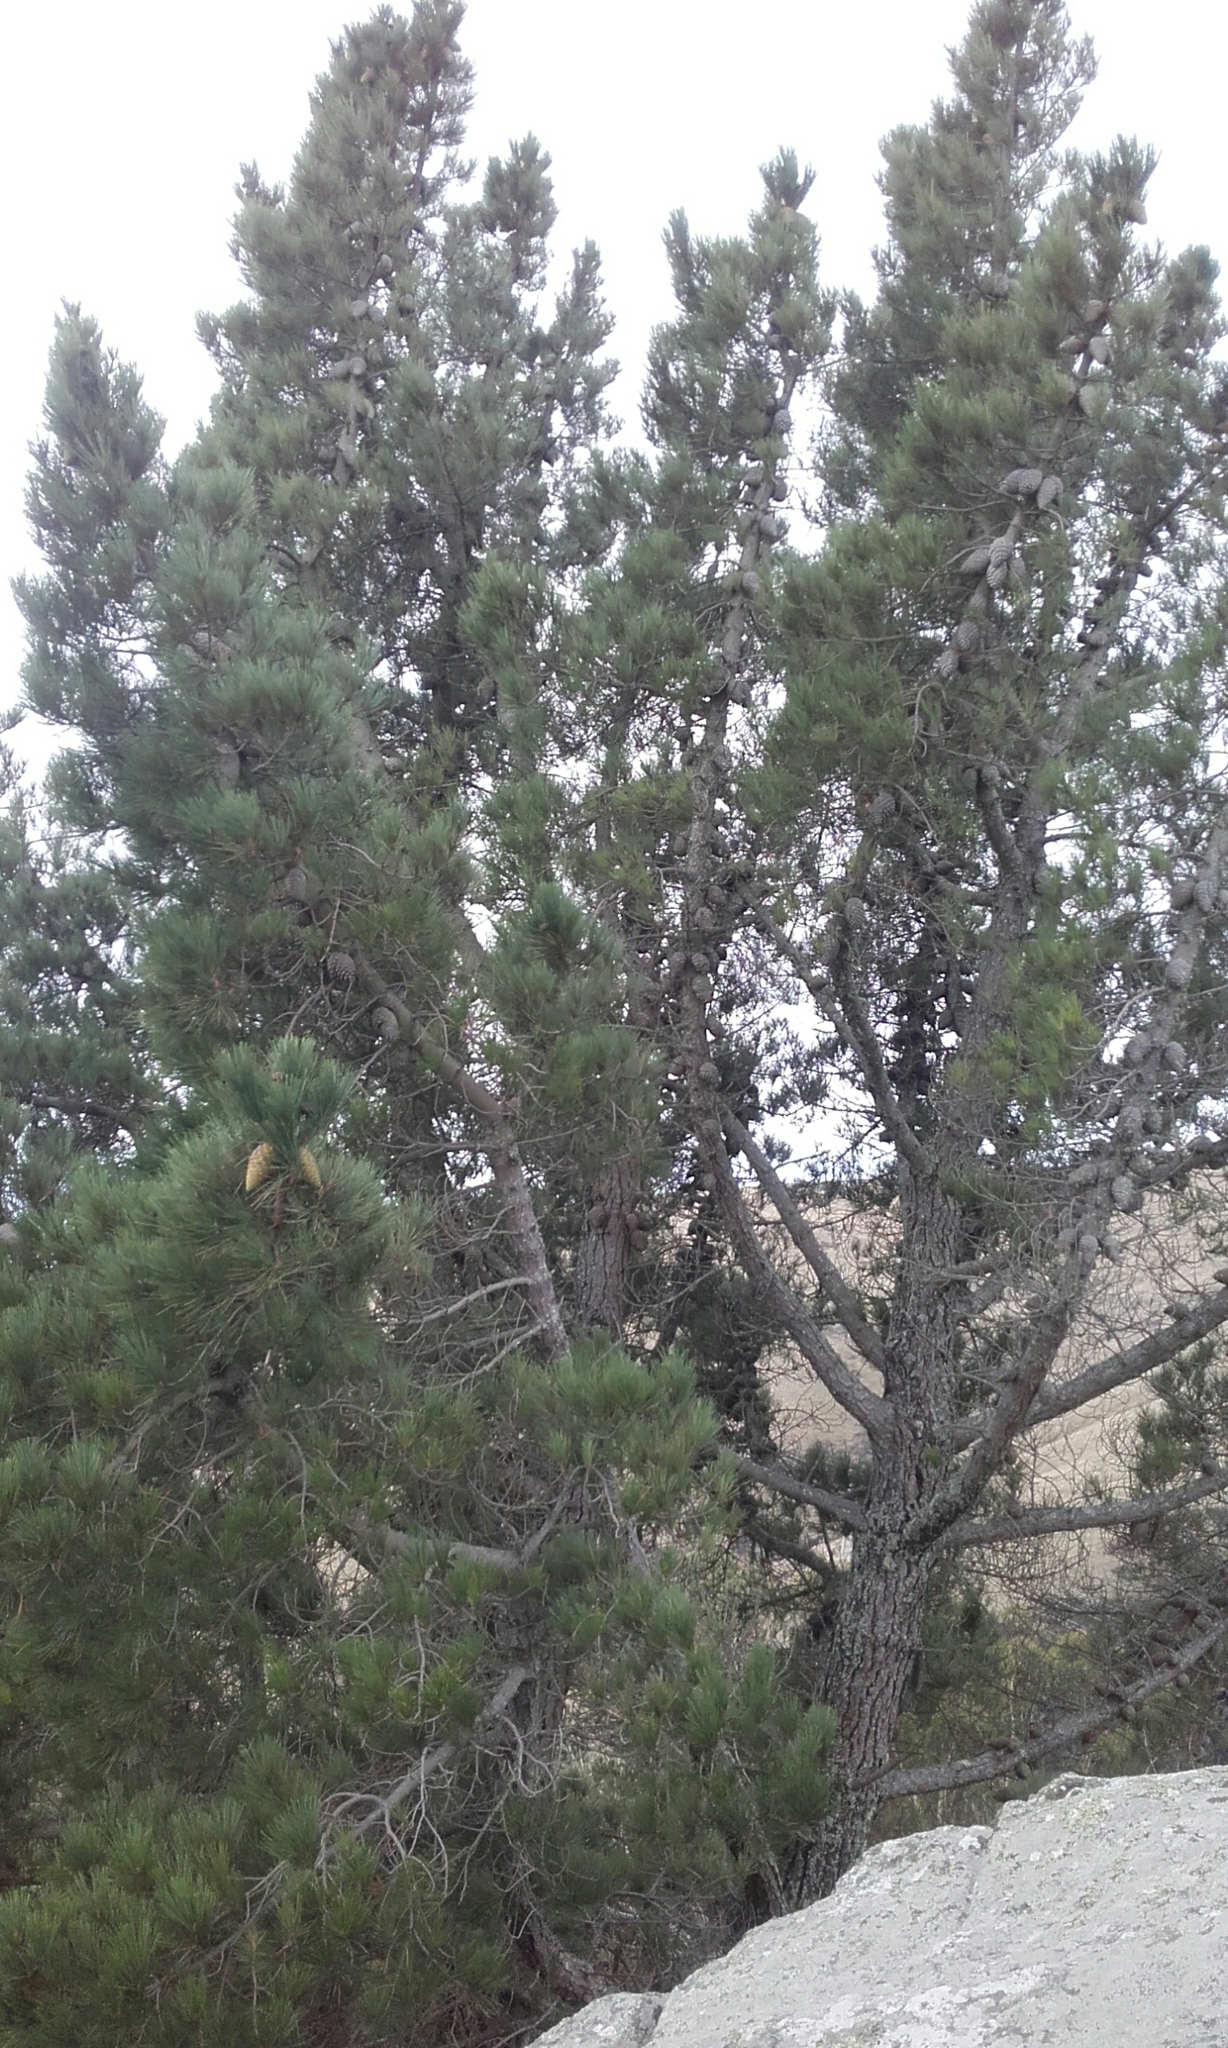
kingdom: Plantae
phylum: Tracheophyta
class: Pinopsida
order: Pinales
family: Pinaceae
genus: Pinus
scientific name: Pinus radiata
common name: Monterey pine
